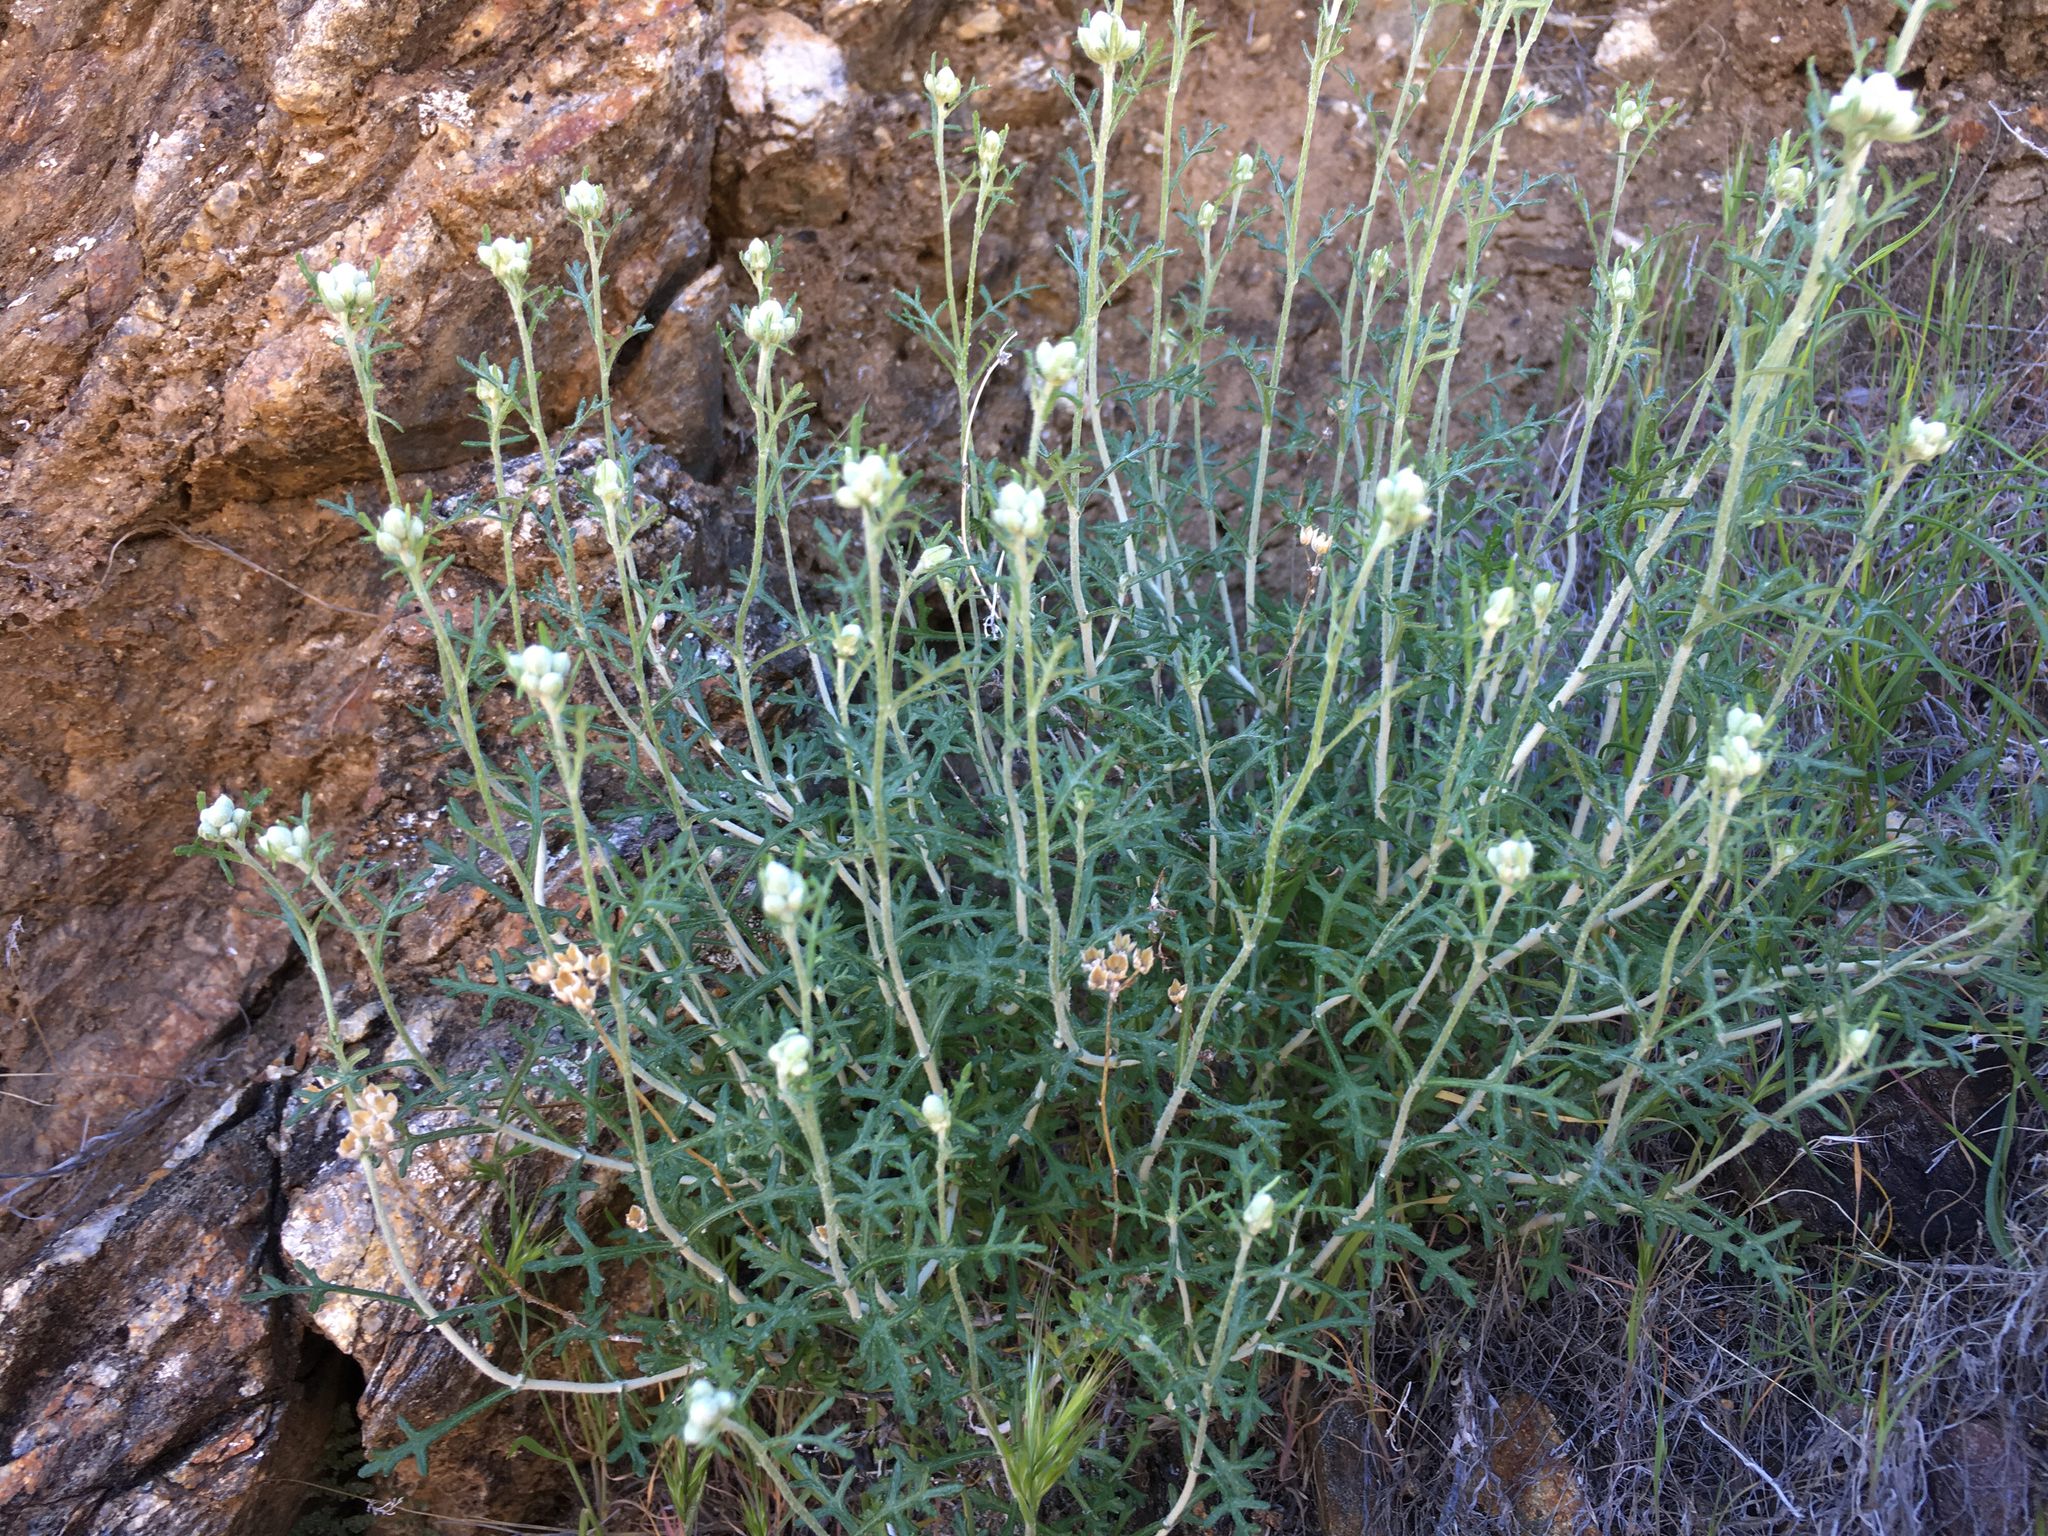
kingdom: Plantae
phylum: Tracheophyta
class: Magnoliopsida
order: Asterales
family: Asteraceae
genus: Eriophyllum
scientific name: Eriophyllum confertiflorum
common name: Golden-yarrow
